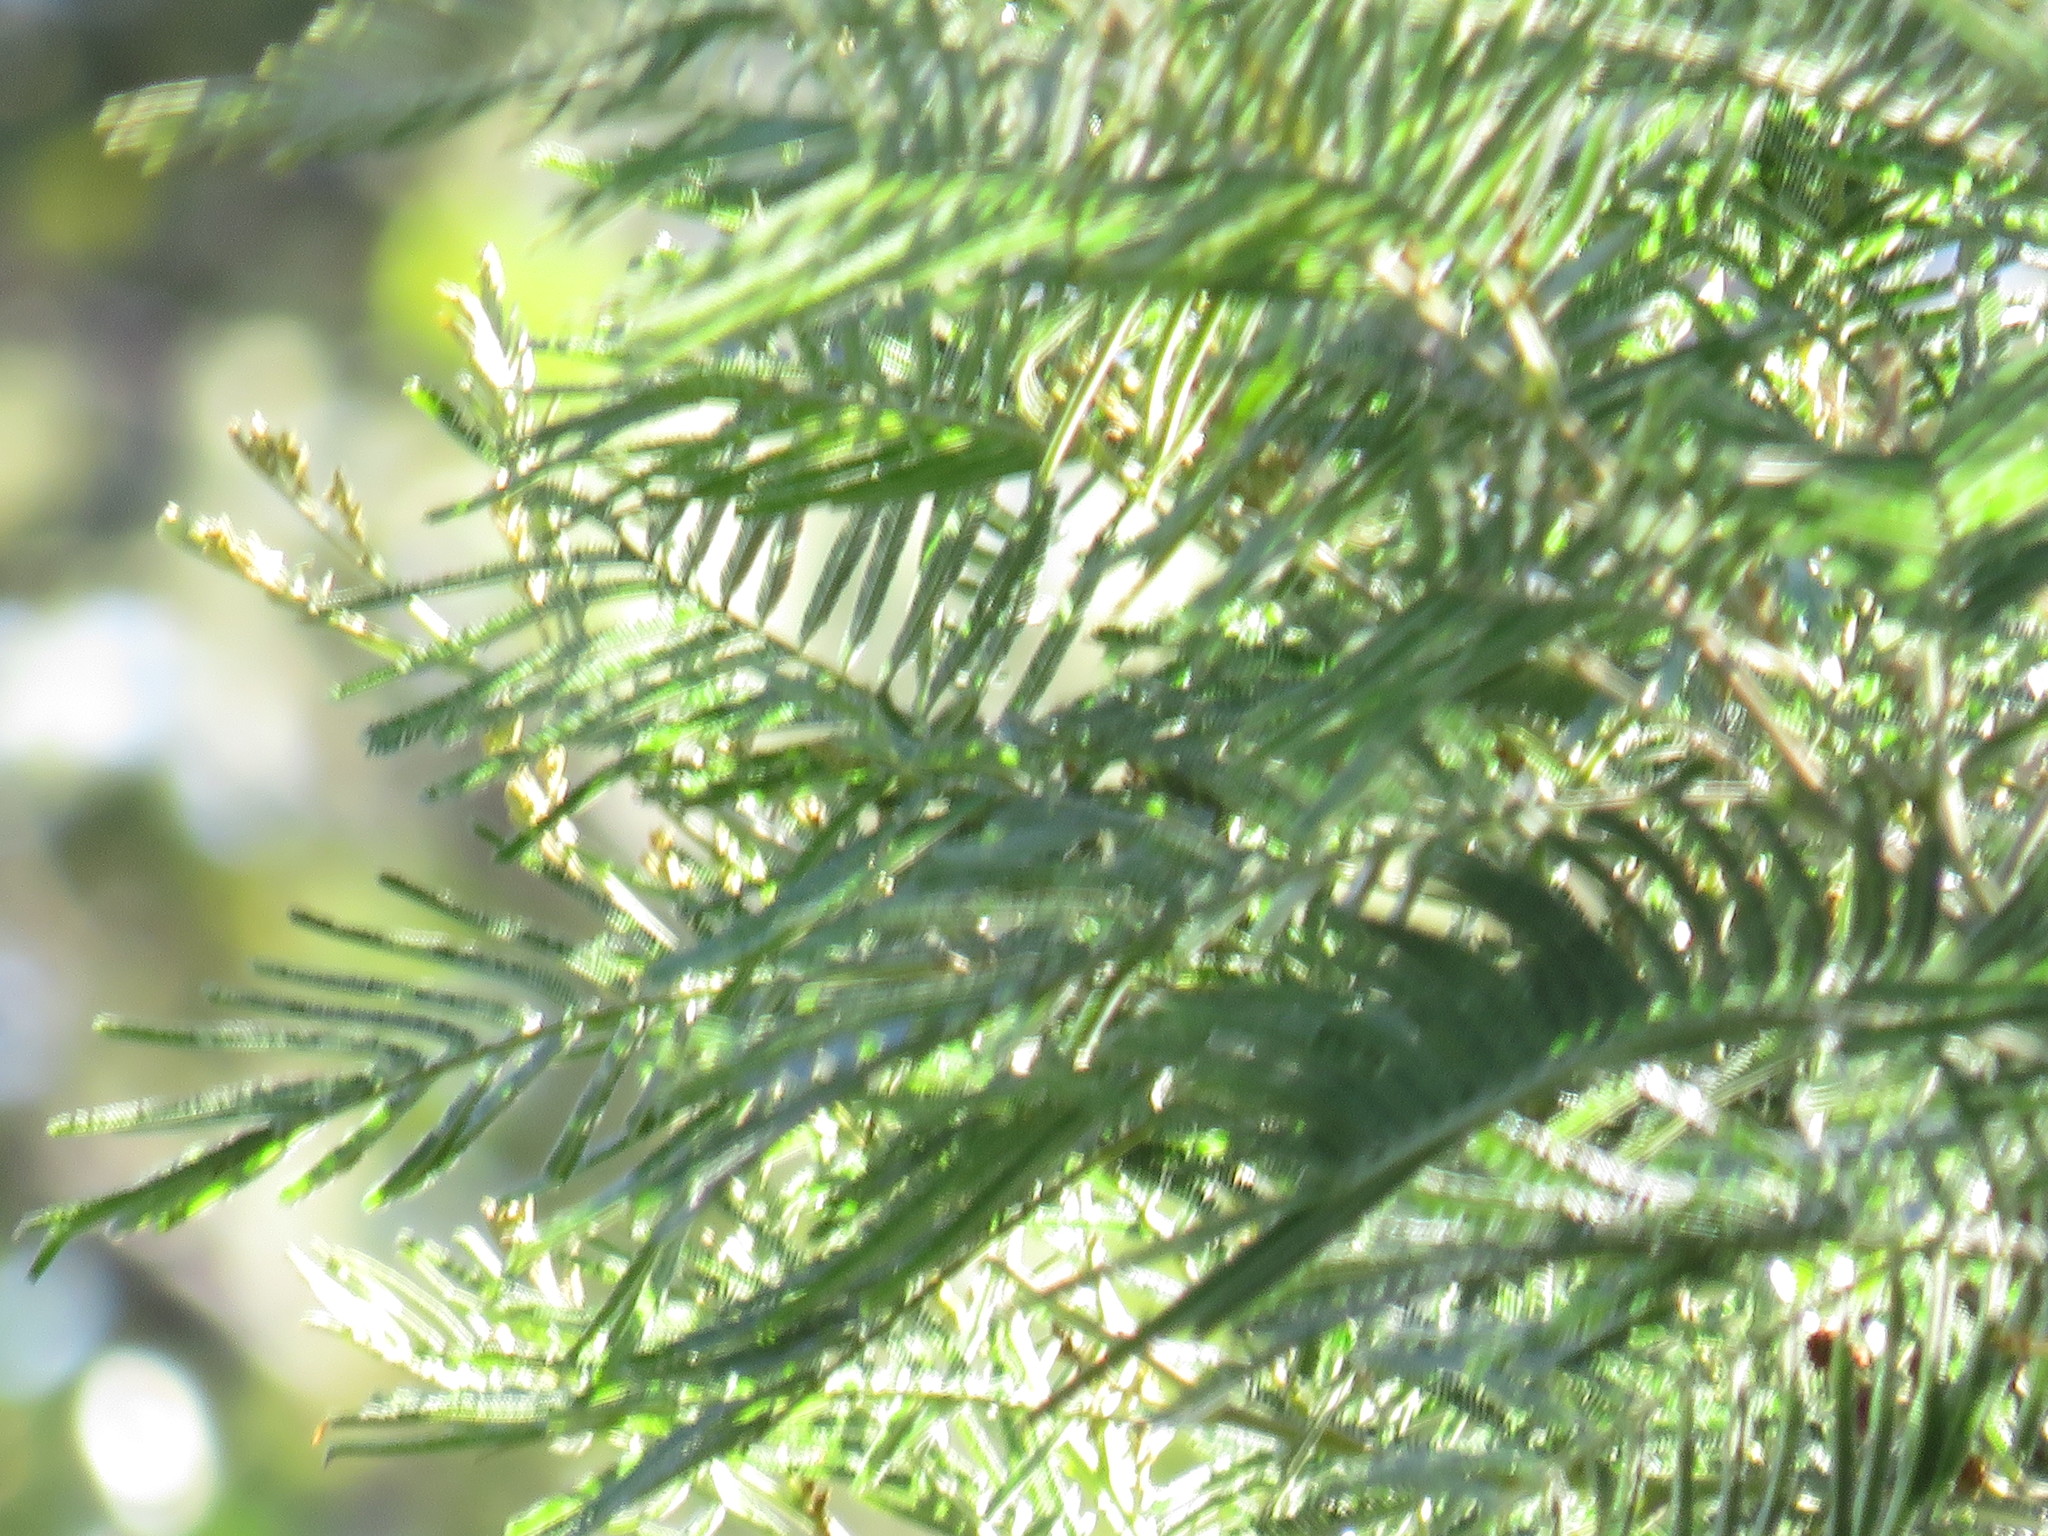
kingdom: Plantae
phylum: Tracheophyta
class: Magnoliopsida
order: Fabales
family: Fabaceae
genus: Acacia
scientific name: Acacia mearnsii
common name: Black wattle
